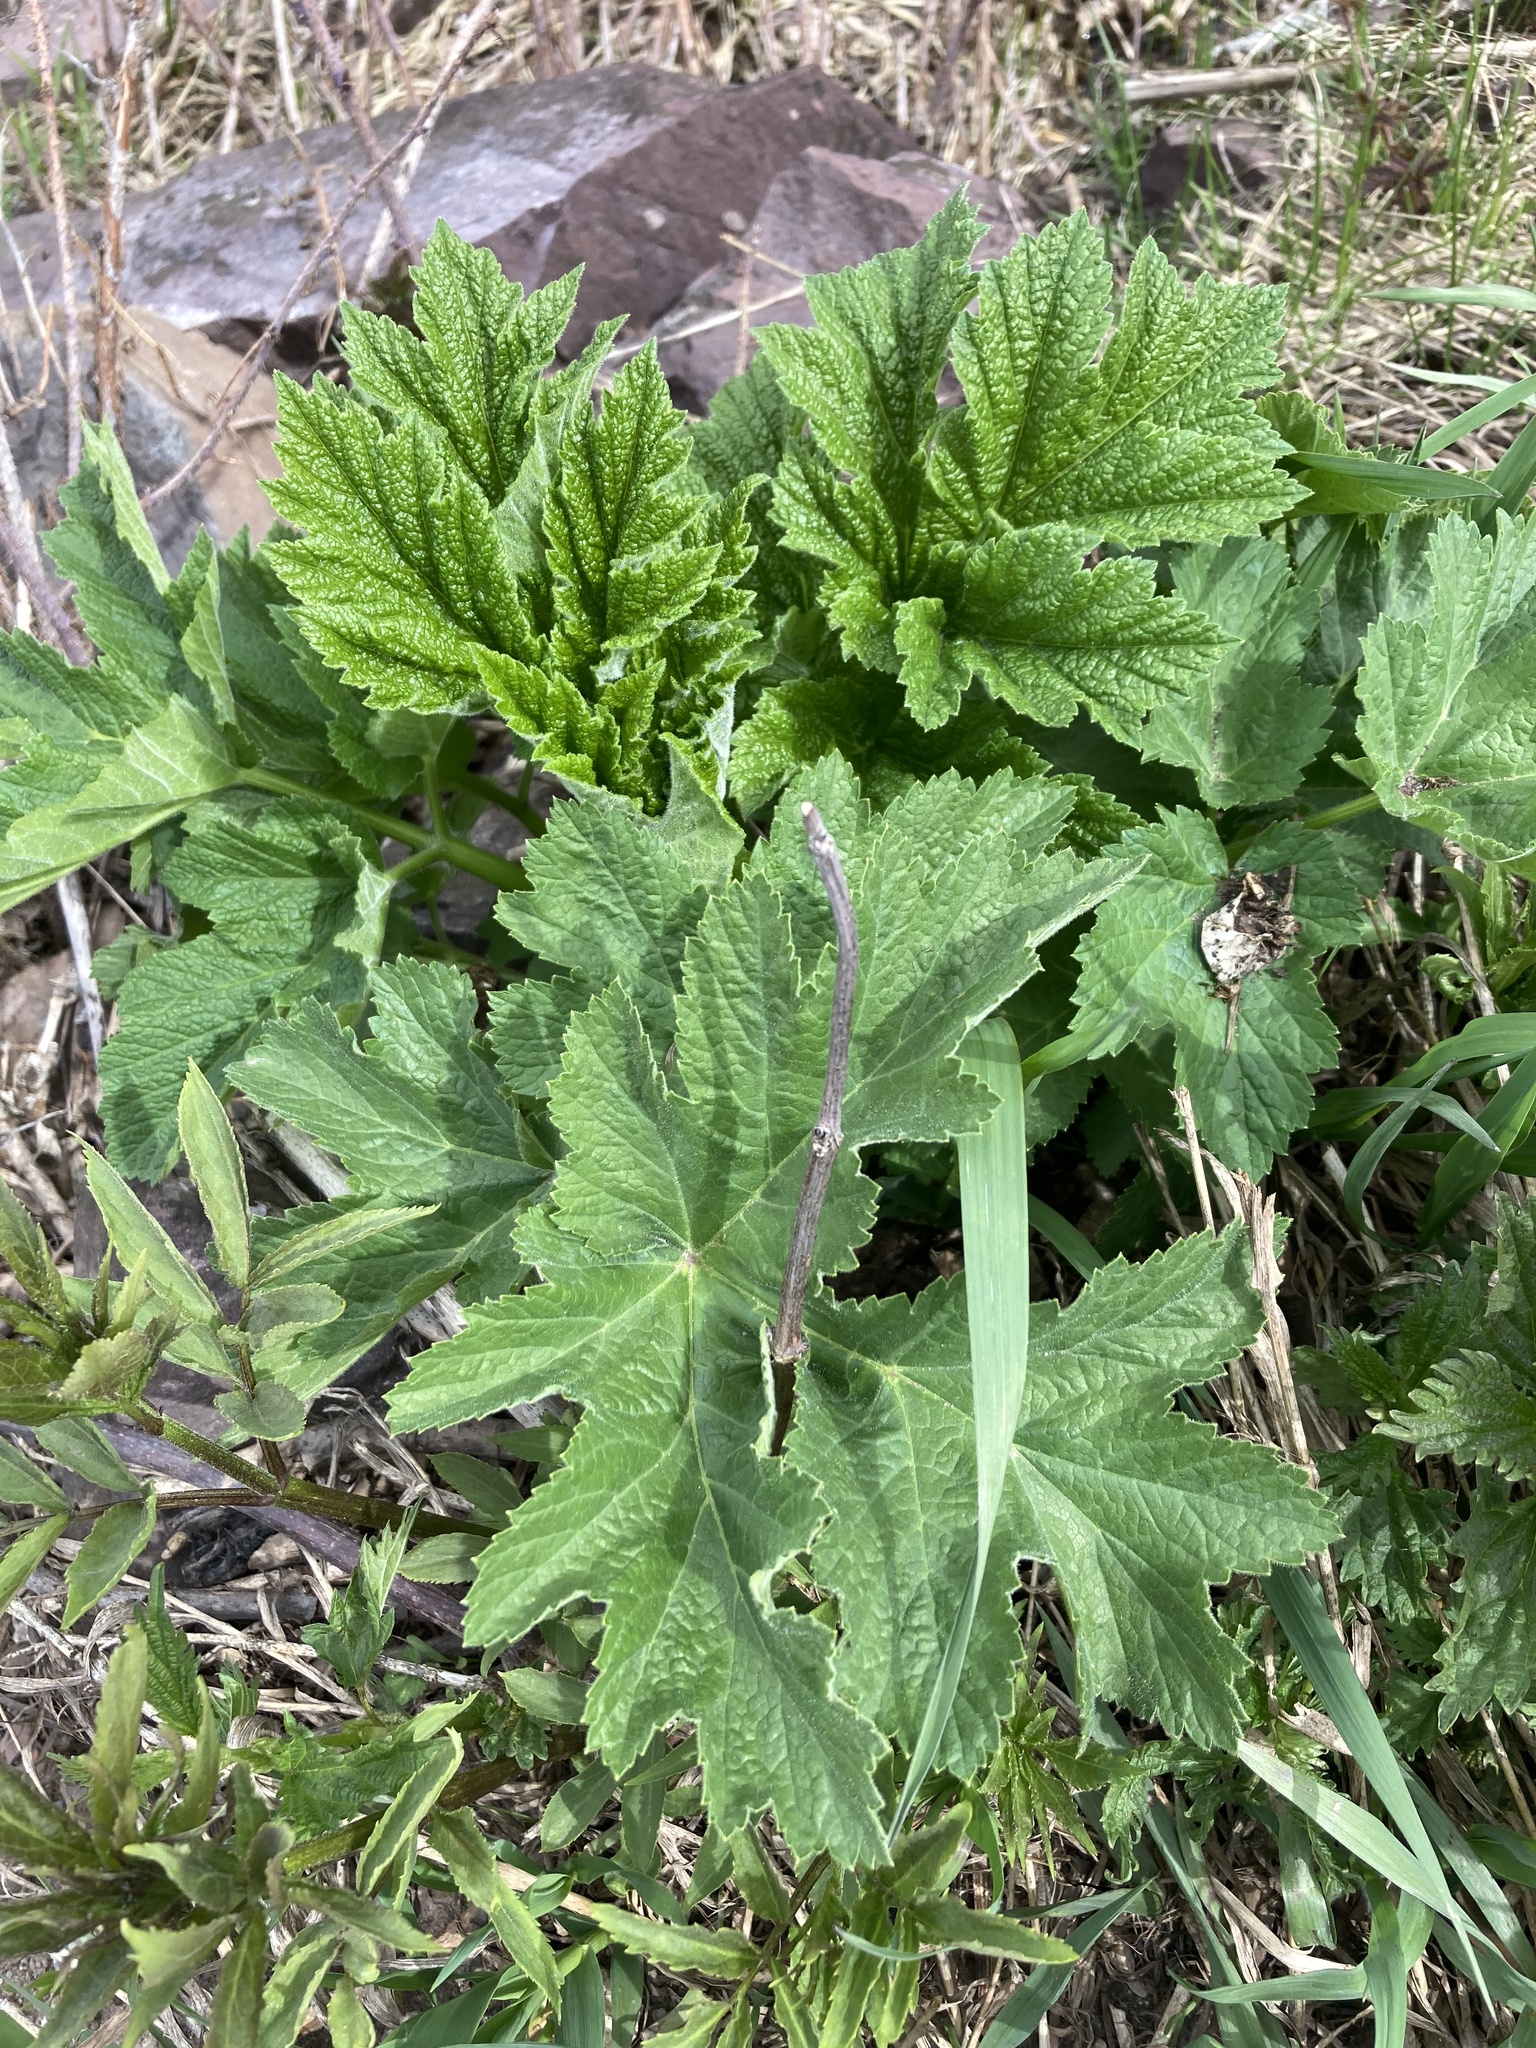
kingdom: Plantae
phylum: Tracheophyta
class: Magnoliopsida
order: Apiales
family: Apiaceae
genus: Heracleum
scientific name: Heracleum maximum
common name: American cow parsnip
